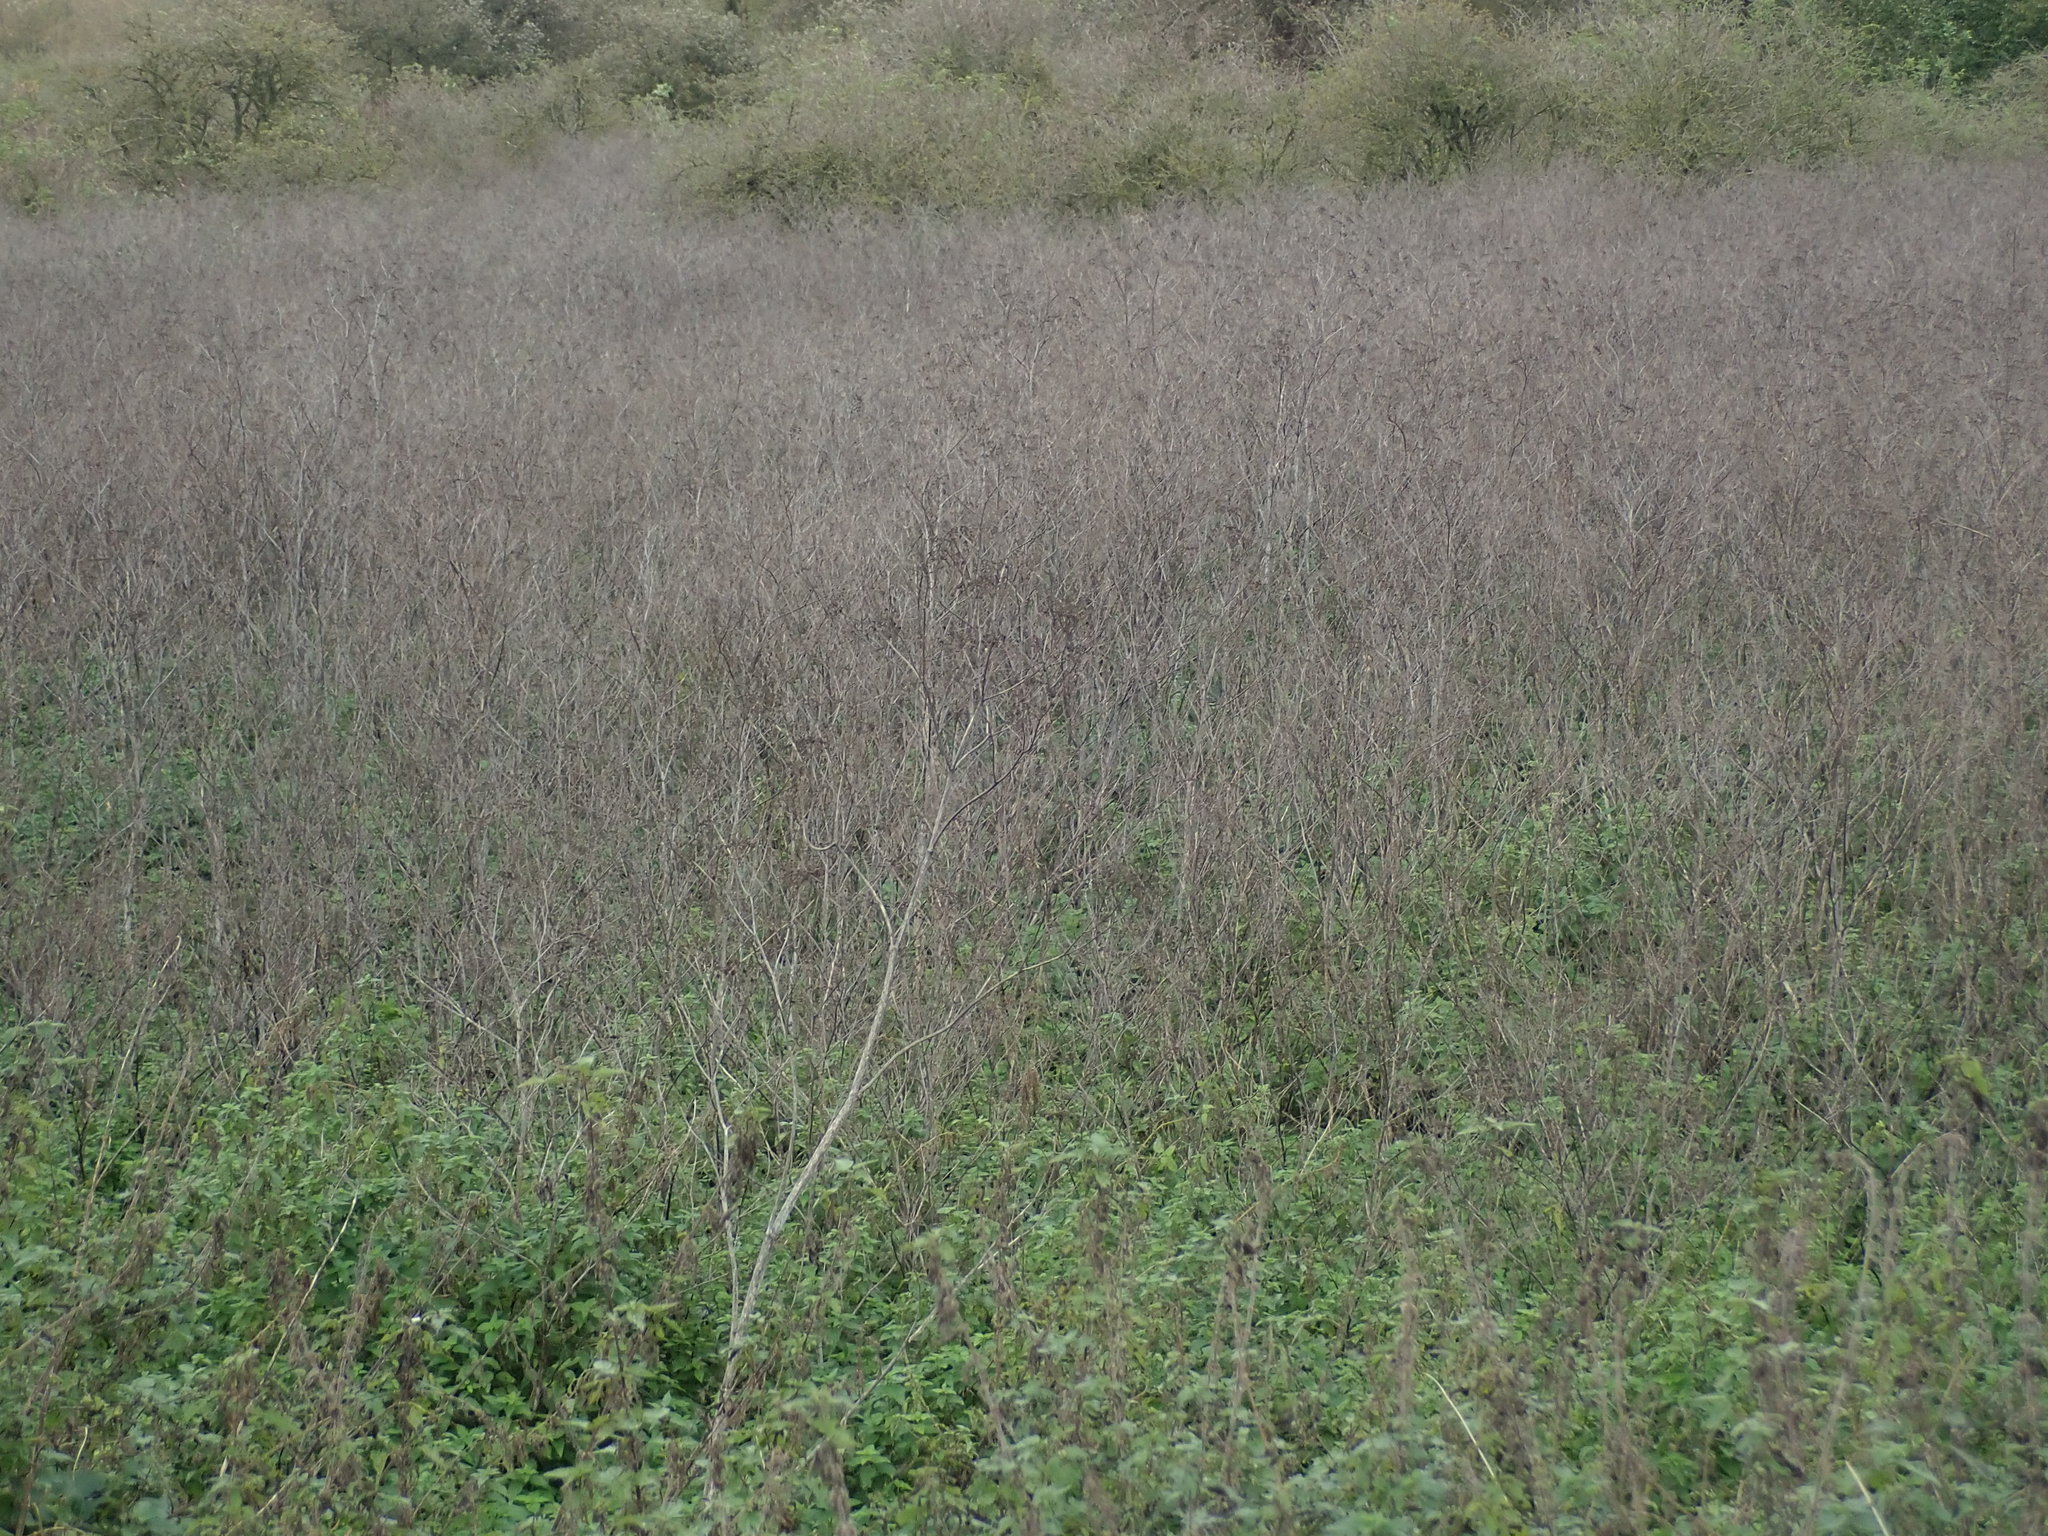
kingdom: Plantae
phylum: Tracheophyta
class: Magnoliopsida
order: Apiales
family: Apiaceae
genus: Conium
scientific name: Conium maculatum
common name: Hemlock
